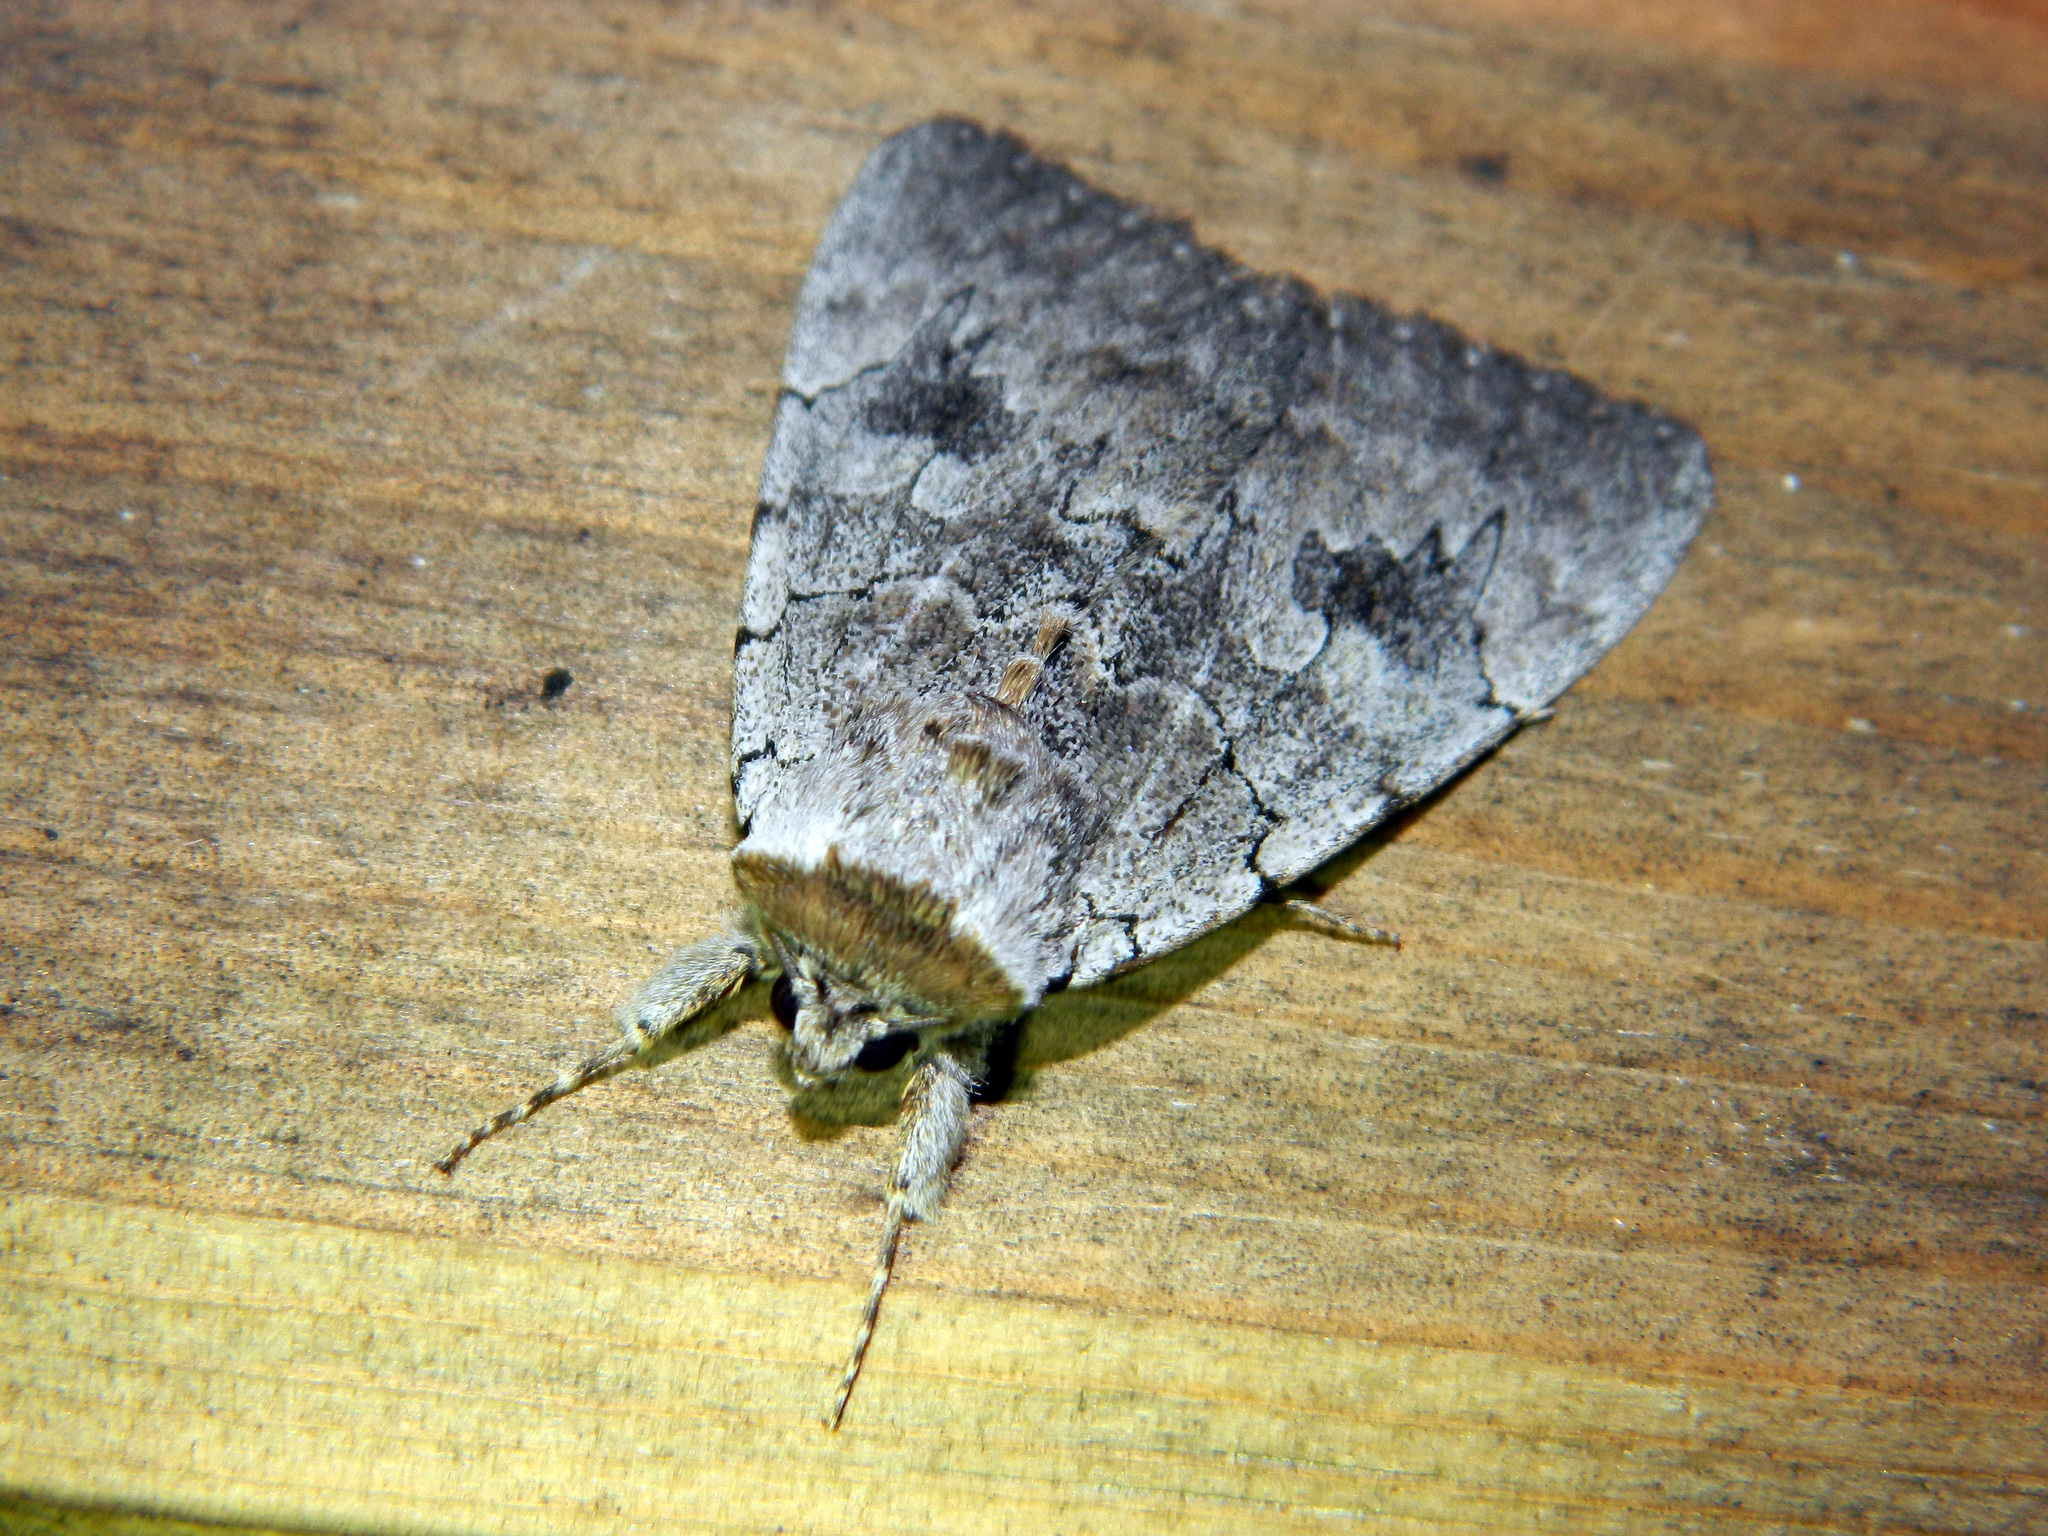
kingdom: Animalia
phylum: Arthropoda
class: Insecta
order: Lepidoptera
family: Erebidae
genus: Catocala
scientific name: Catocala concumbens
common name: Pink underwing
